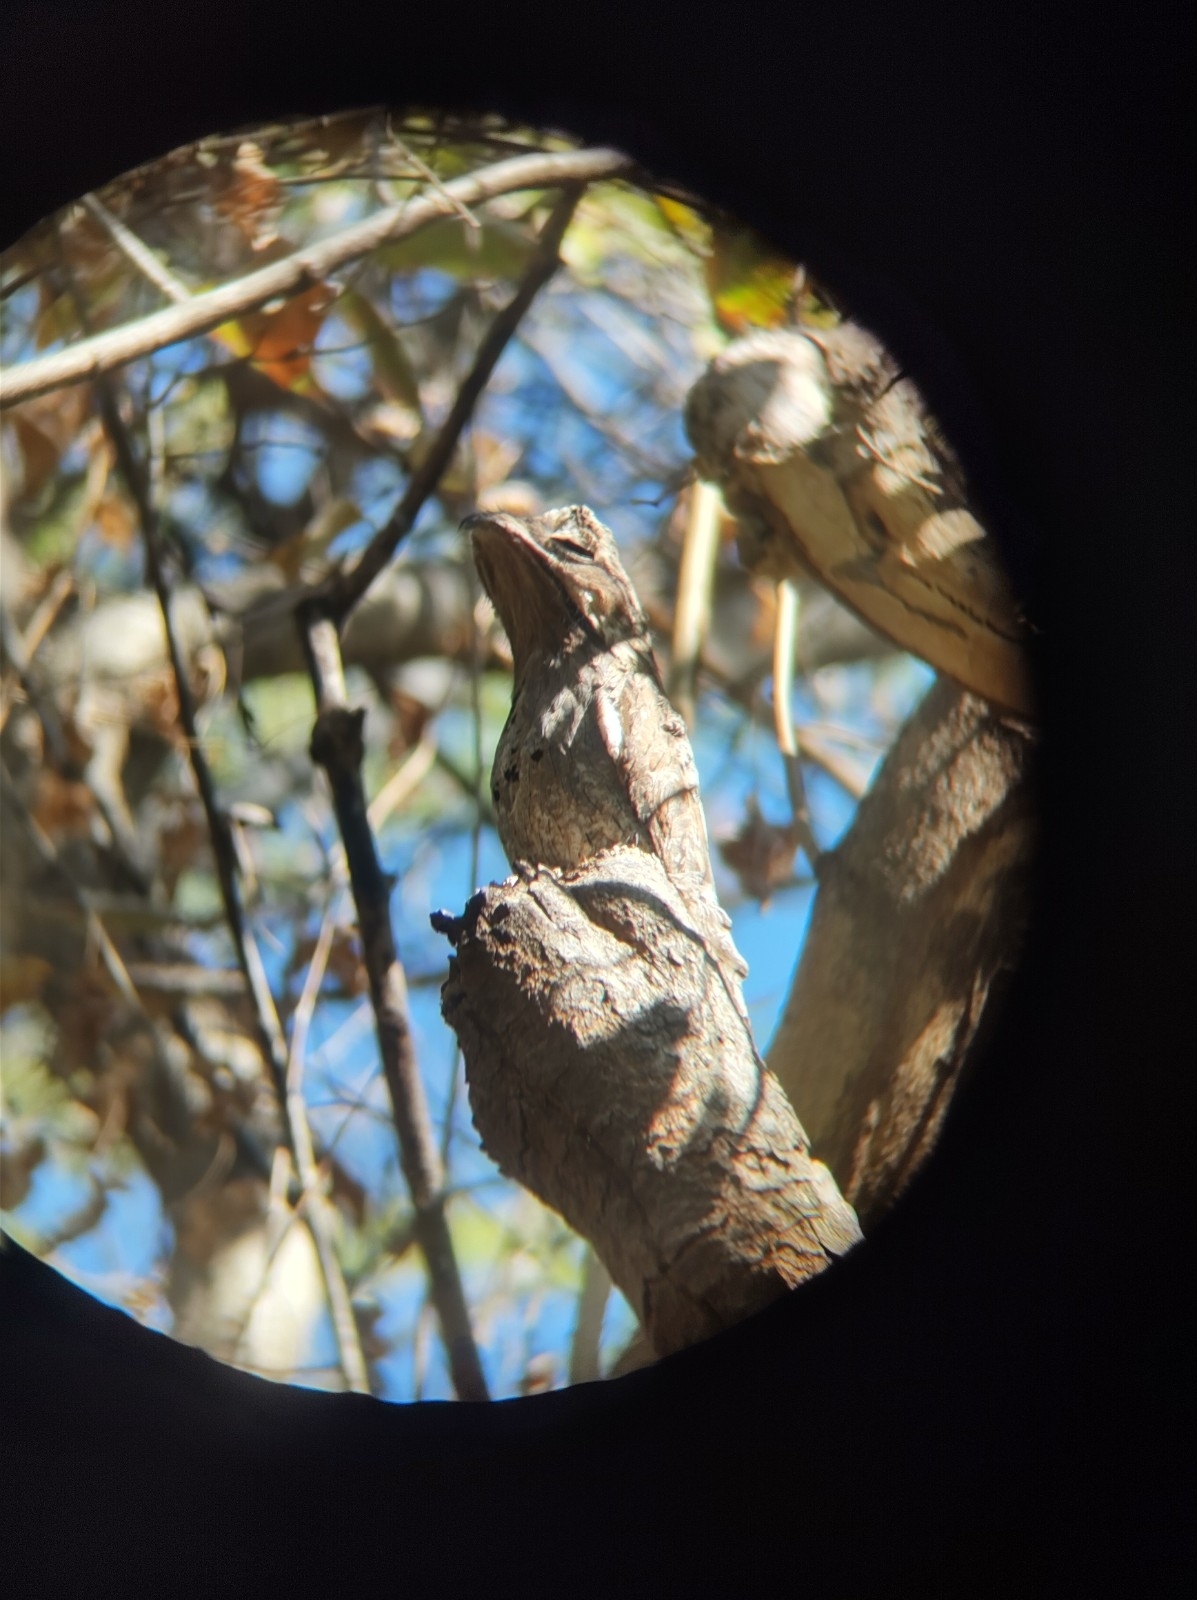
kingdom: Animalia
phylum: Chordata
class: Aves
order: Nyctibiiformes
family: Nyctibiidae
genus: Nyctibius
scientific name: Nyctibius jamaicensis
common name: Northern potoo
